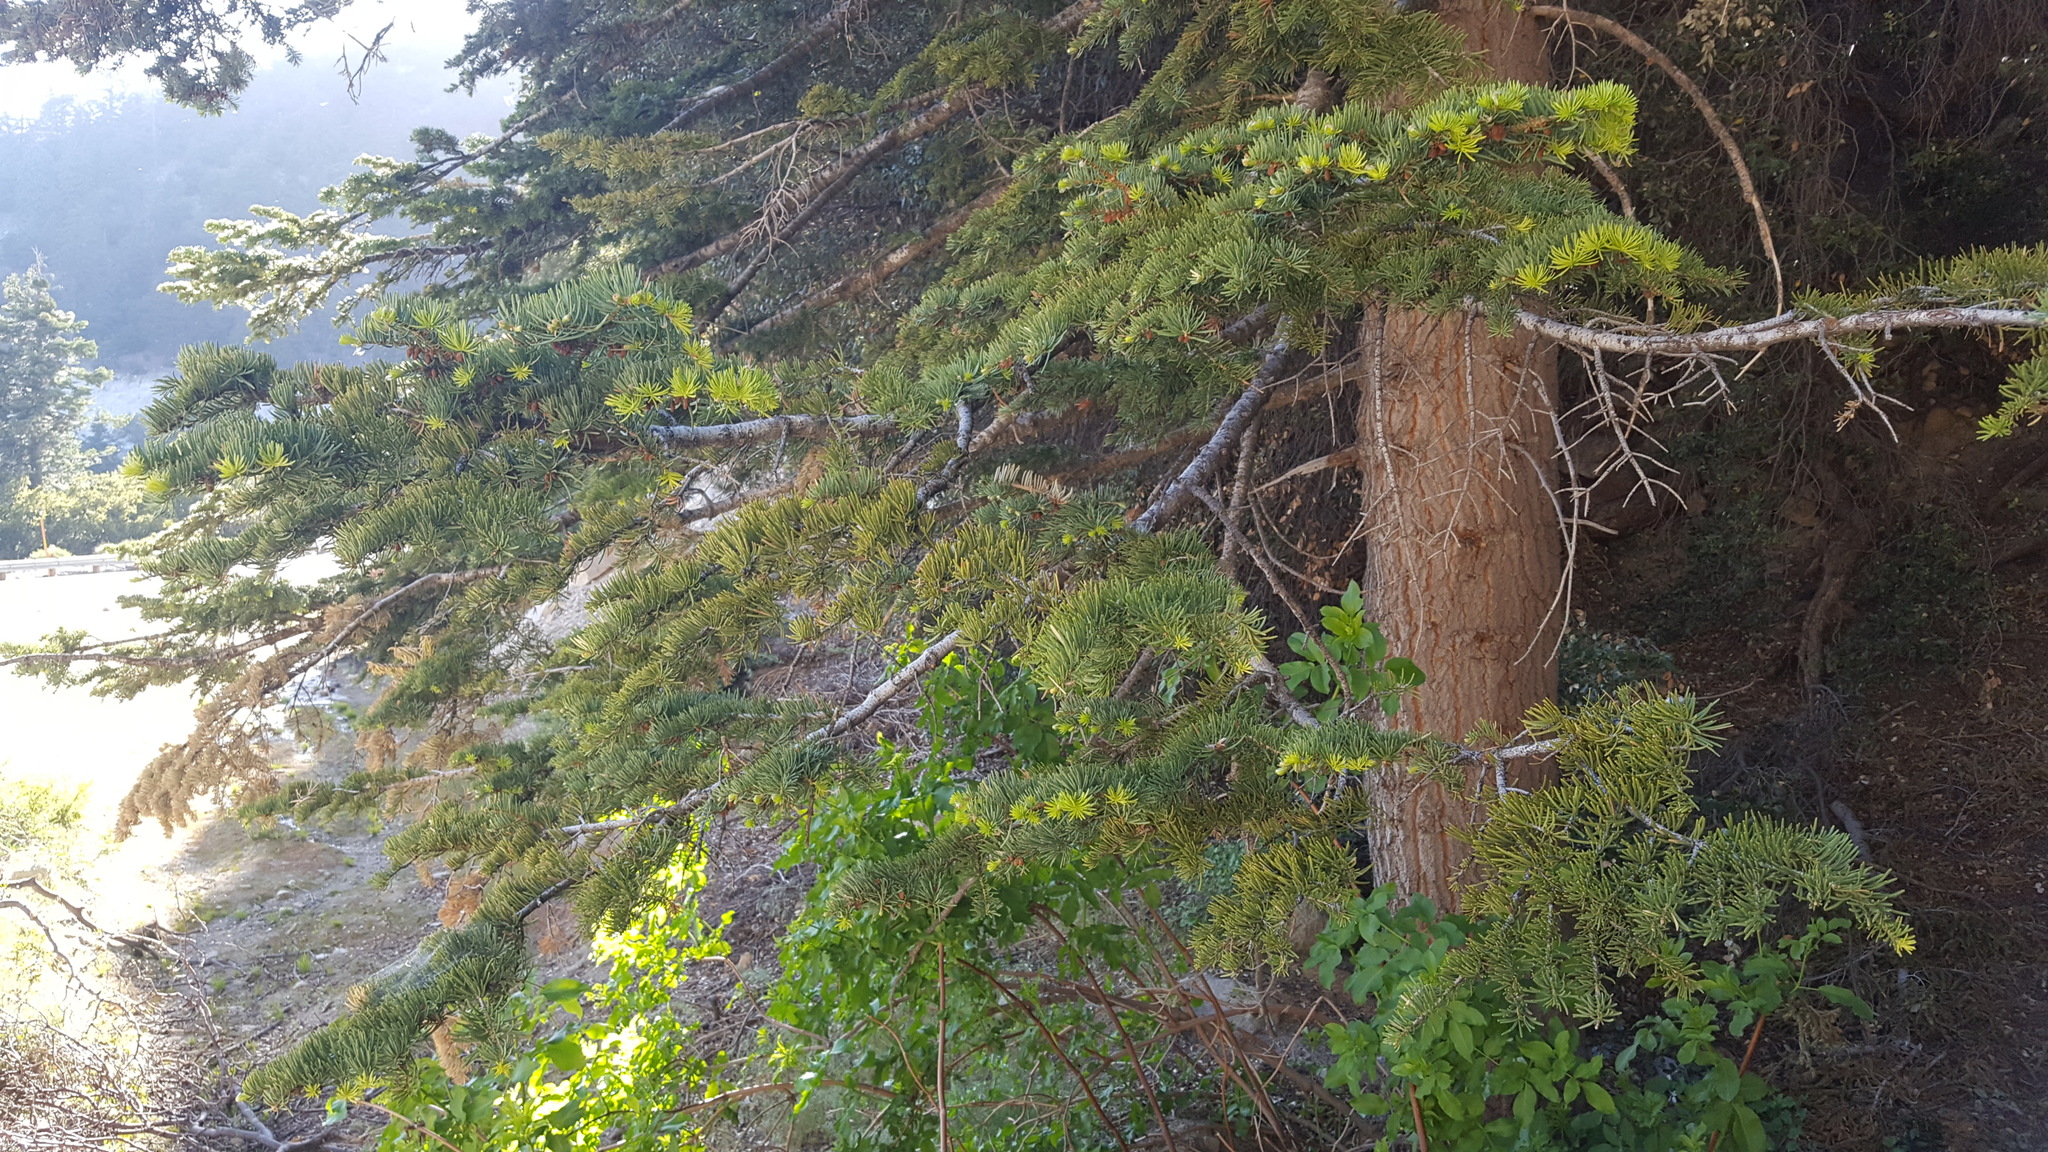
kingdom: Plantae
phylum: Tracheophyta
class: Pinopsida
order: Pinales
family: Pinaceae
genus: Abies
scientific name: Abies concolor
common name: Colorado fir
